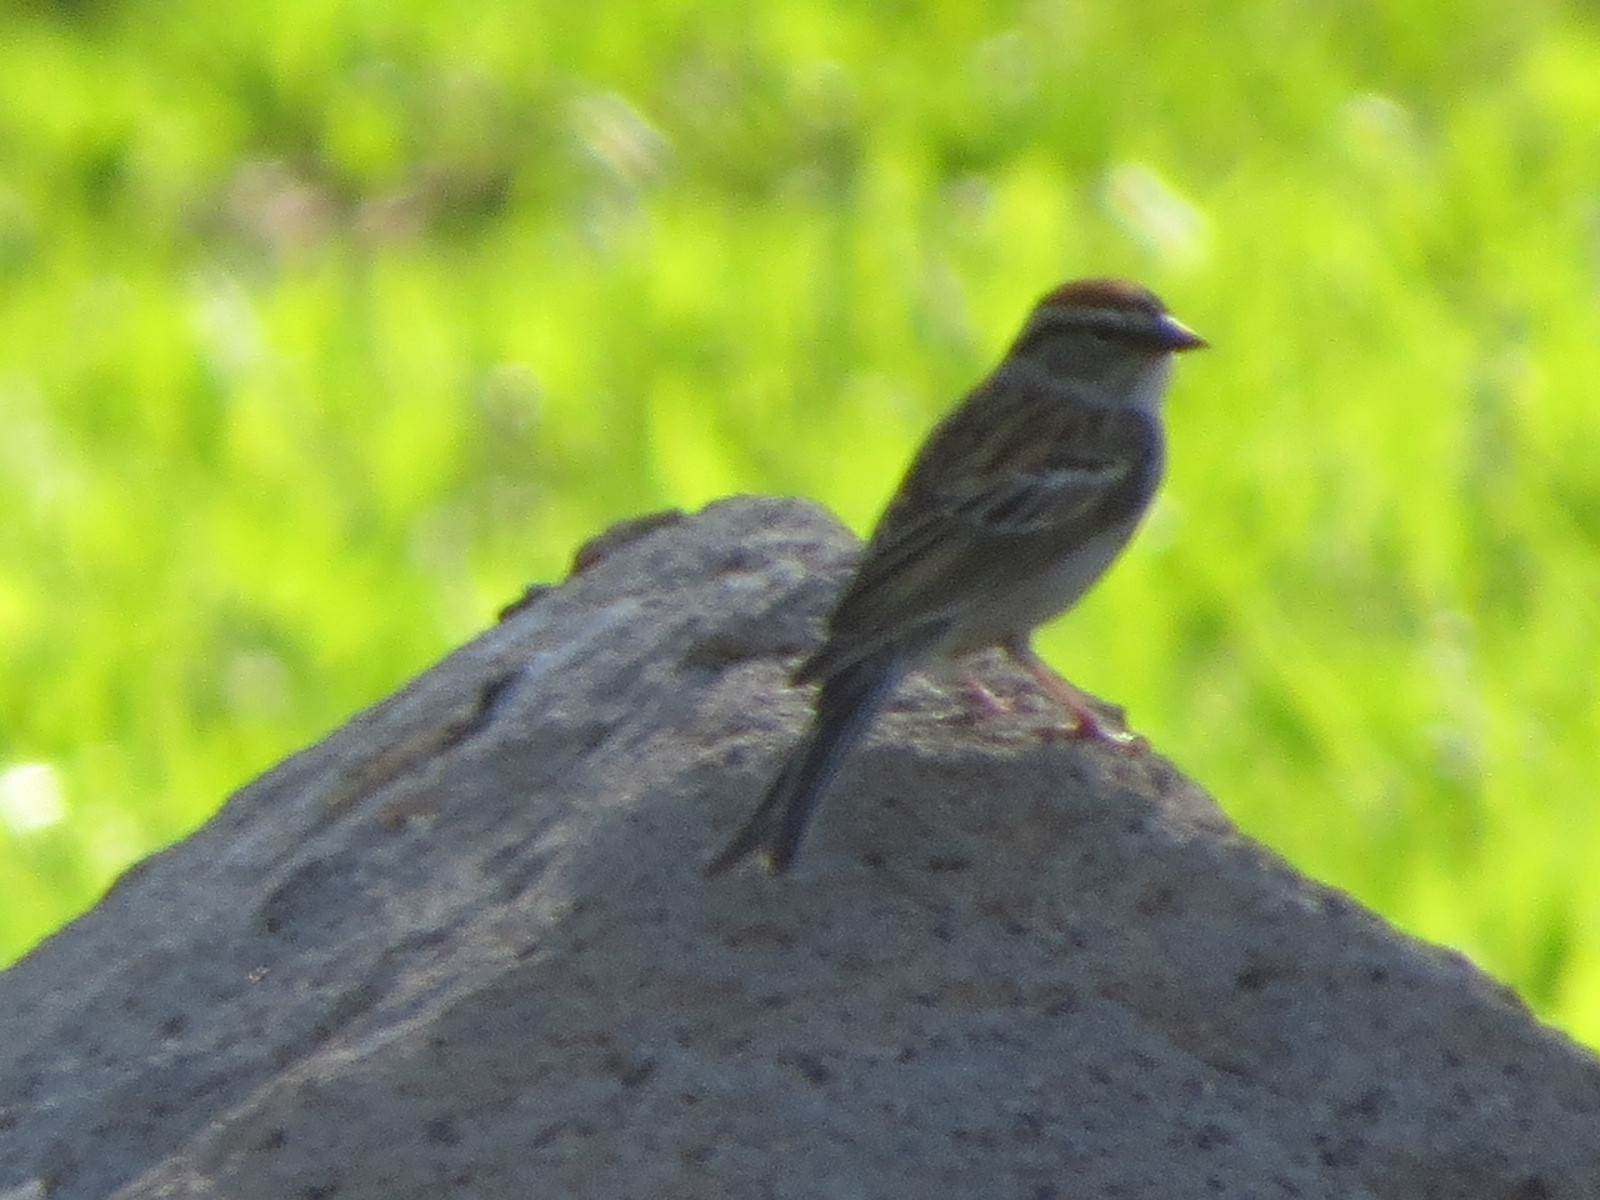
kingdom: Animalia
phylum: Chordata
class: Aves
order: Passeriformes
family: Passerellidae
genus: Spizella
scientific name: Spizella passerina
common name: Chipping sparrow
